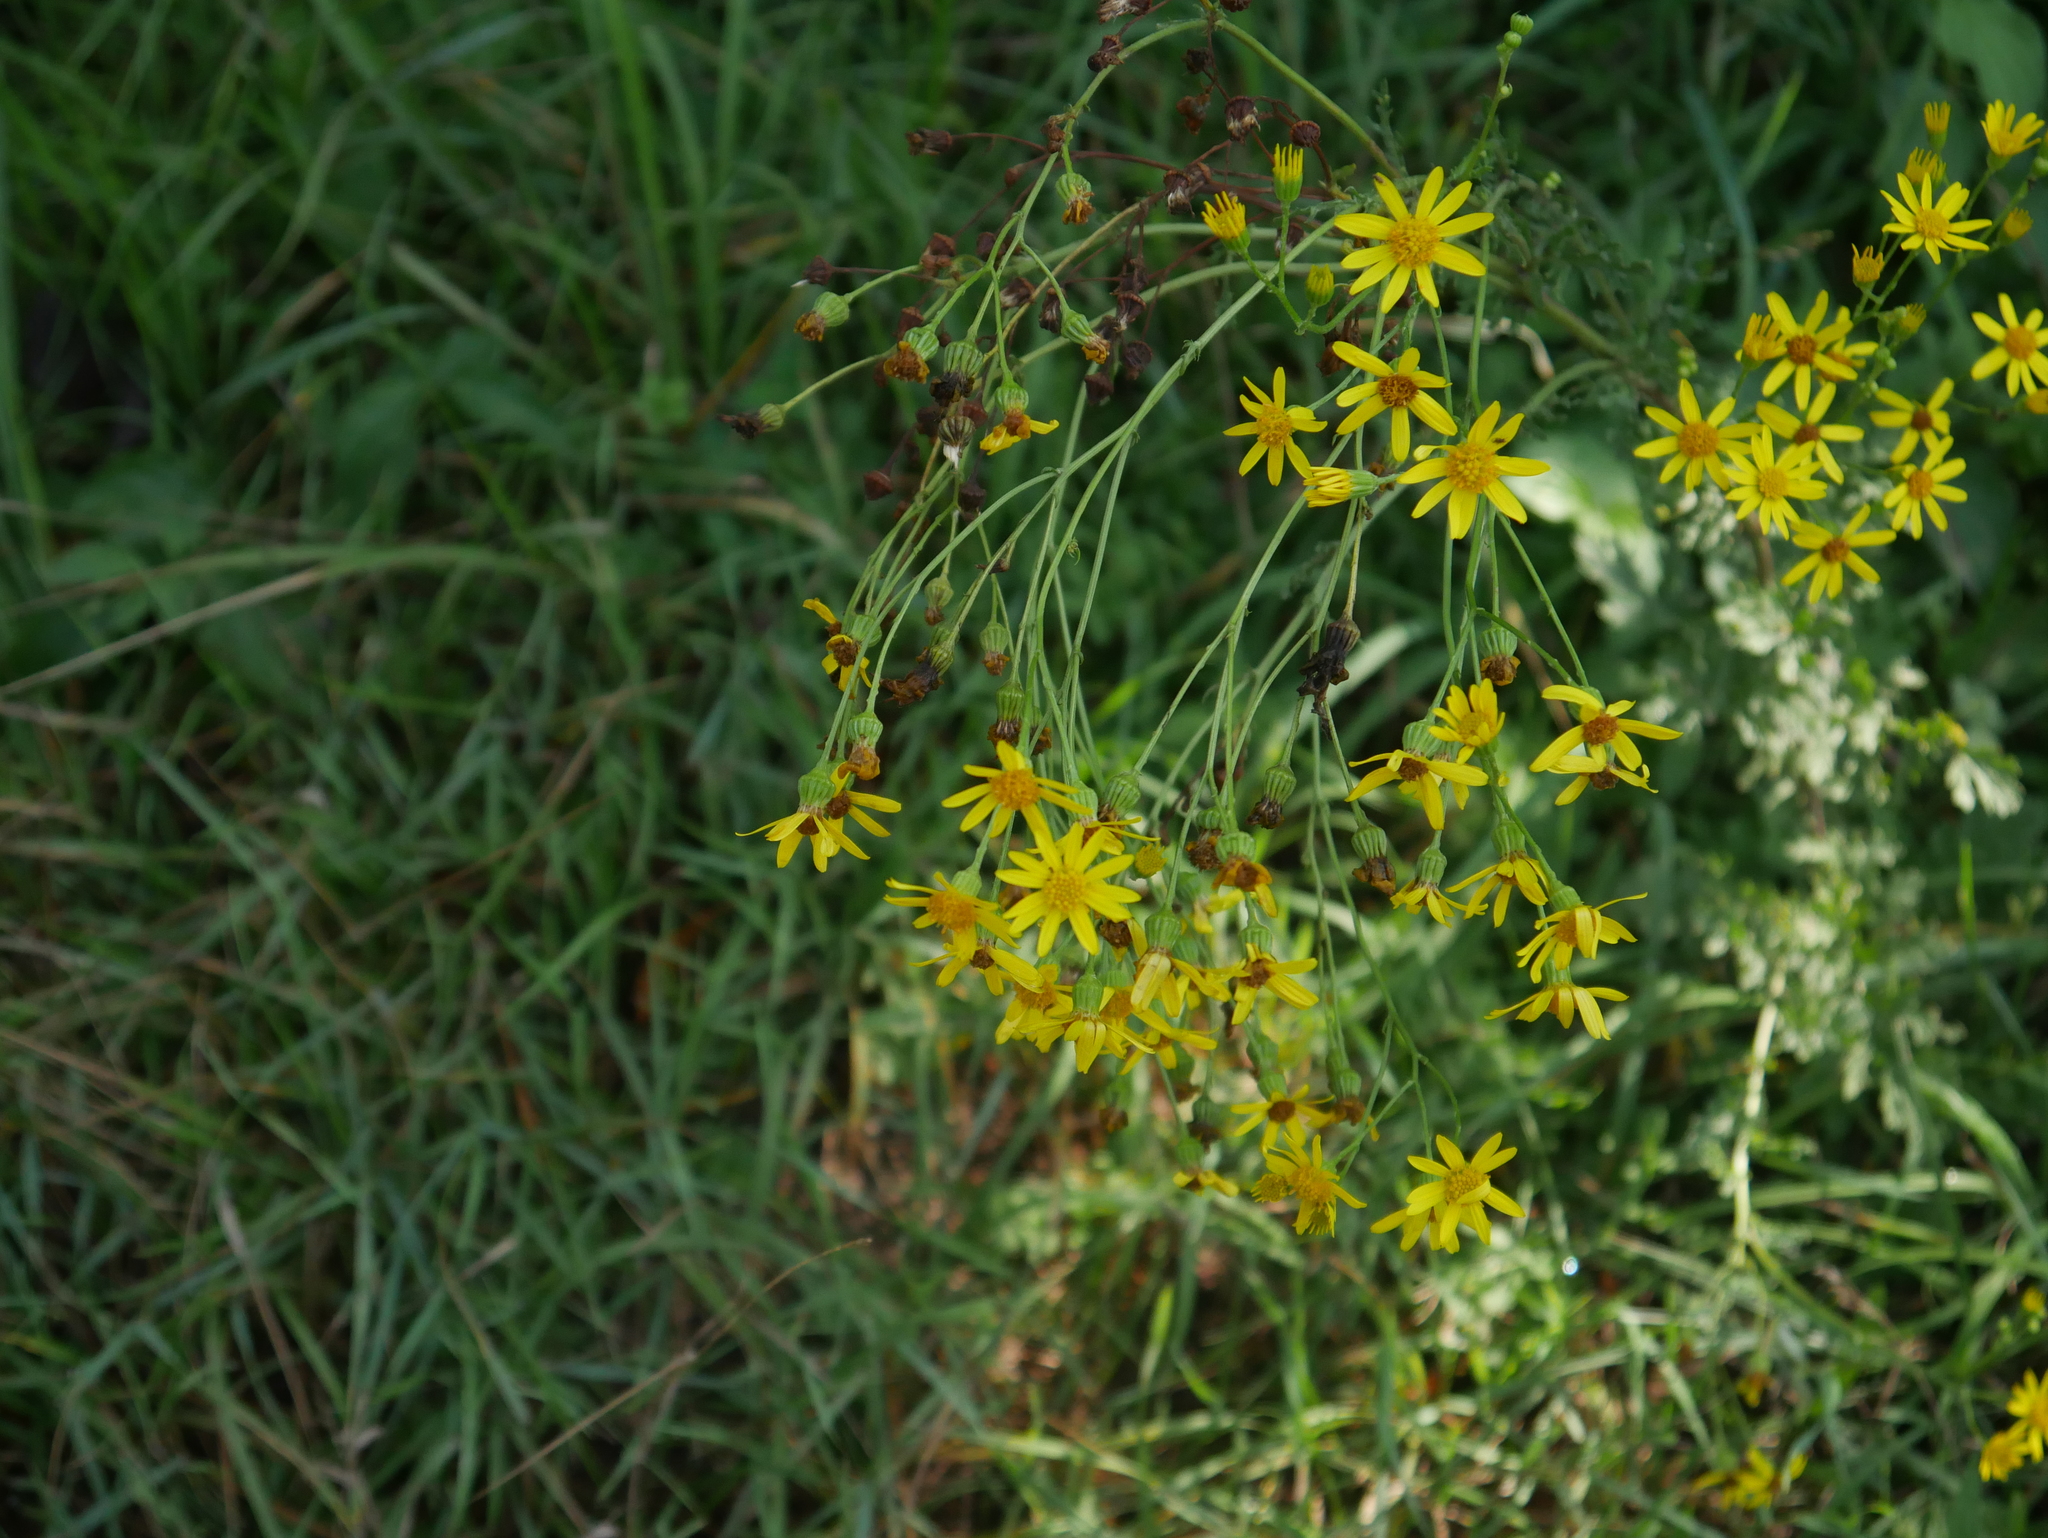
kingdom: Plantae
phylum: Tracheophyta
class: Magnoliopsida
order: Asterales
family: Asteraceae
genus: Jacobaea
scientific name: Jacobaea vulgaris
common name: Stinking willie
